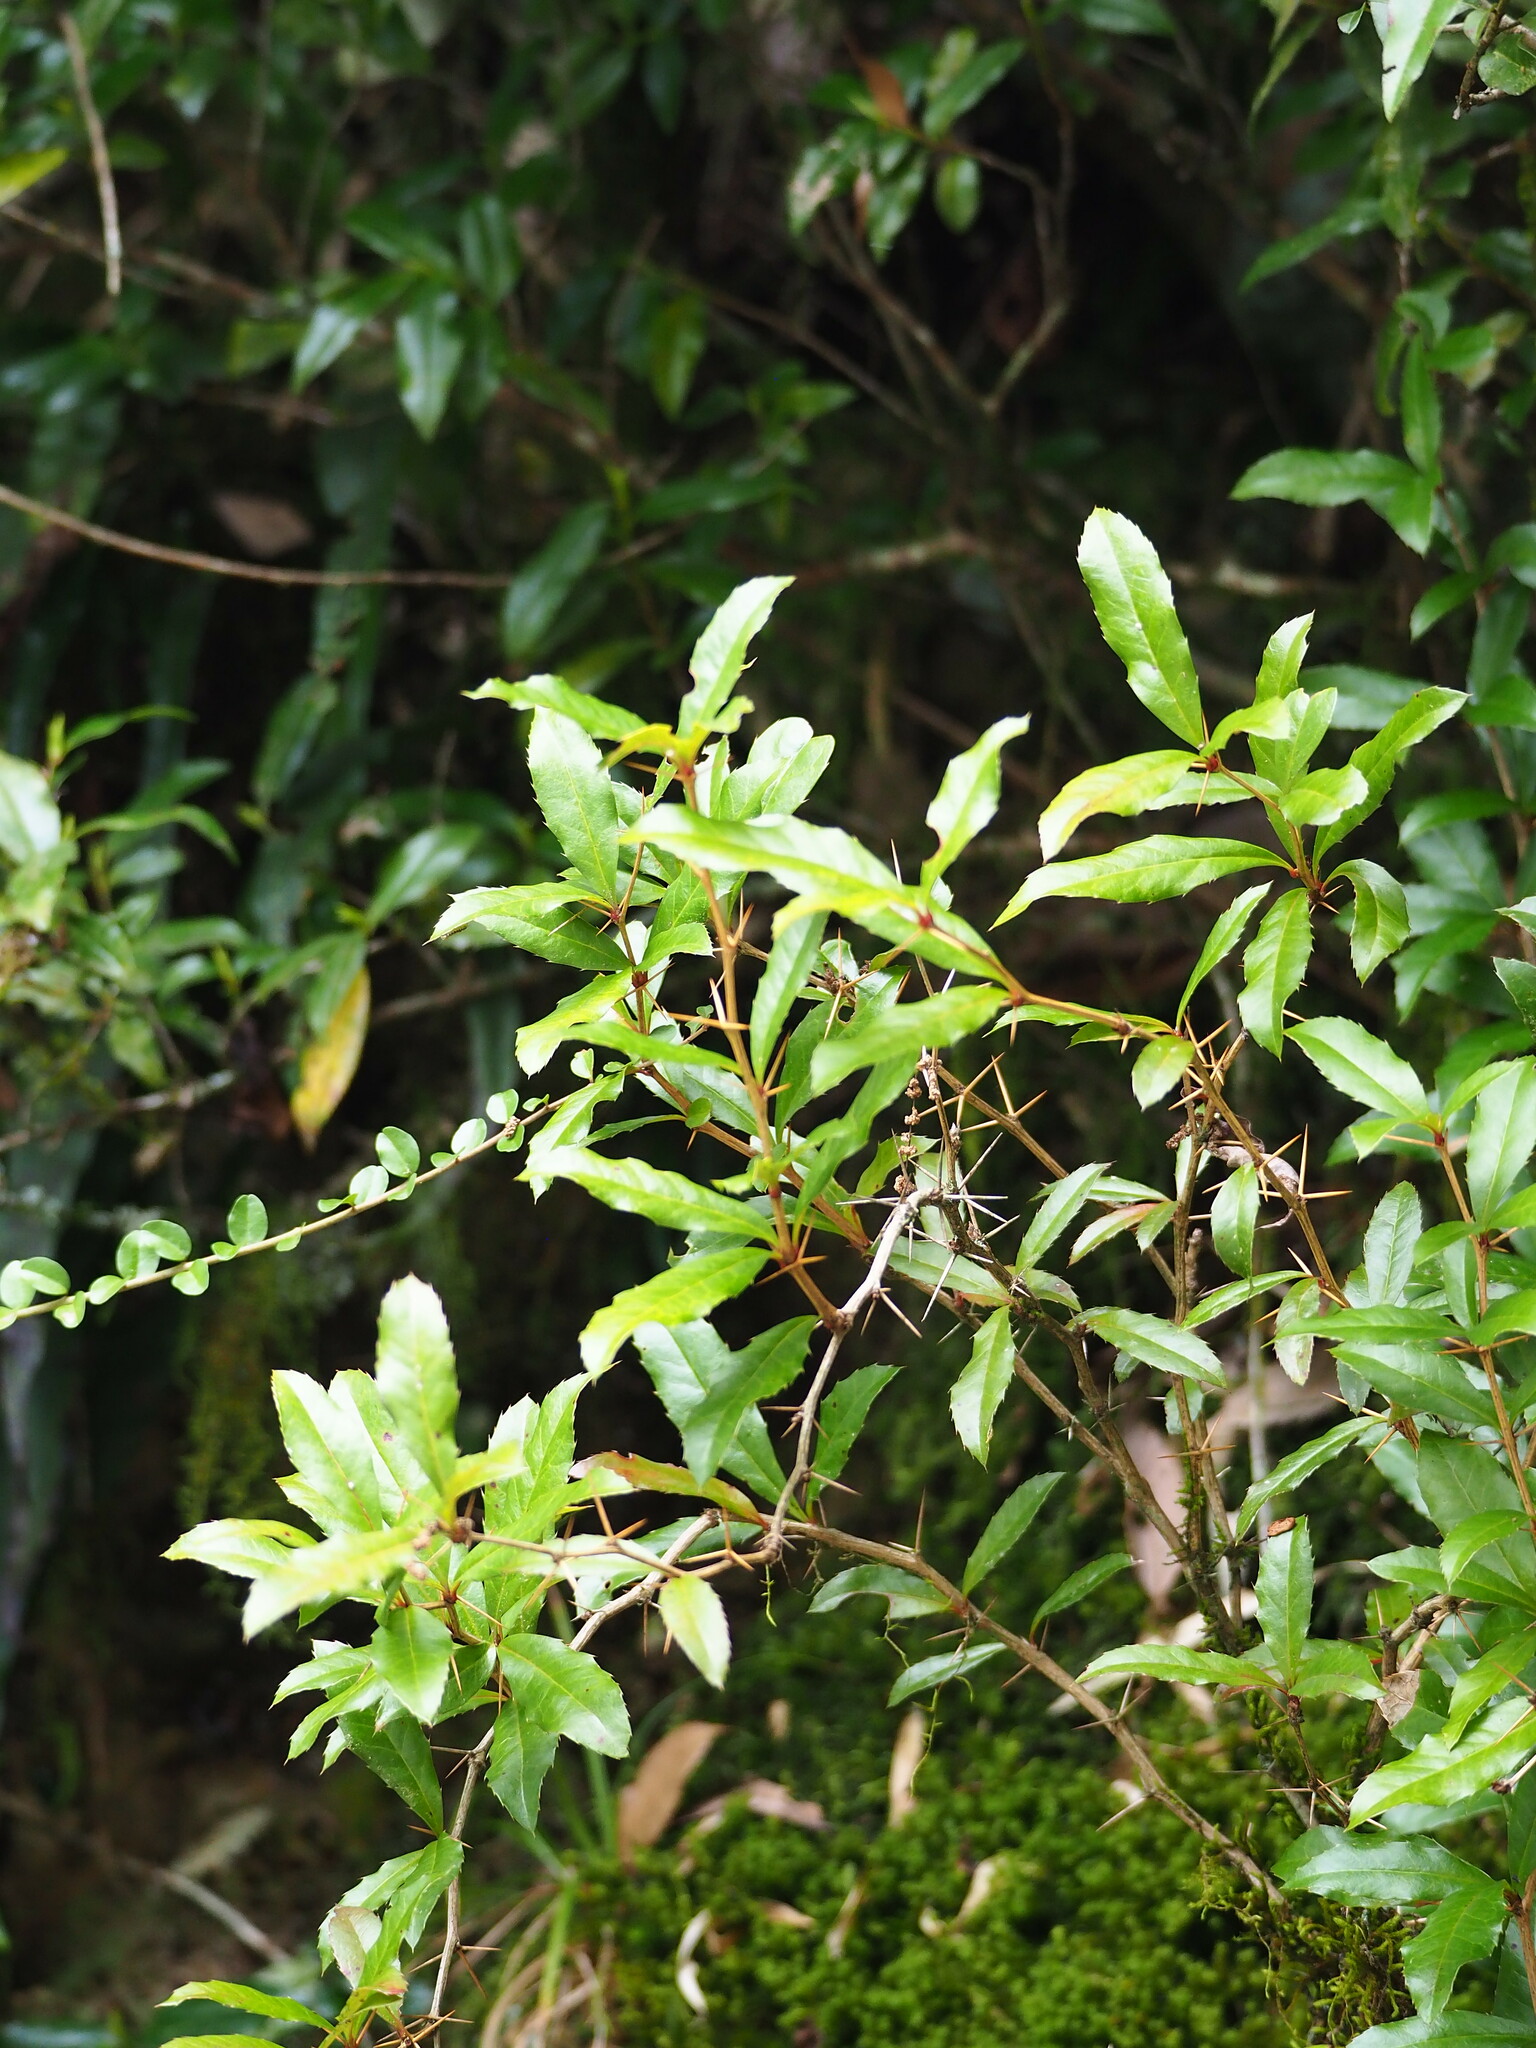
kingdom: Plantae
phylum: Tracheophyta
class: Magnoliopsida
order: Ranunculales
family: Berberidaceae
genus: Berberis
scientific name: Berberis kawakamii
